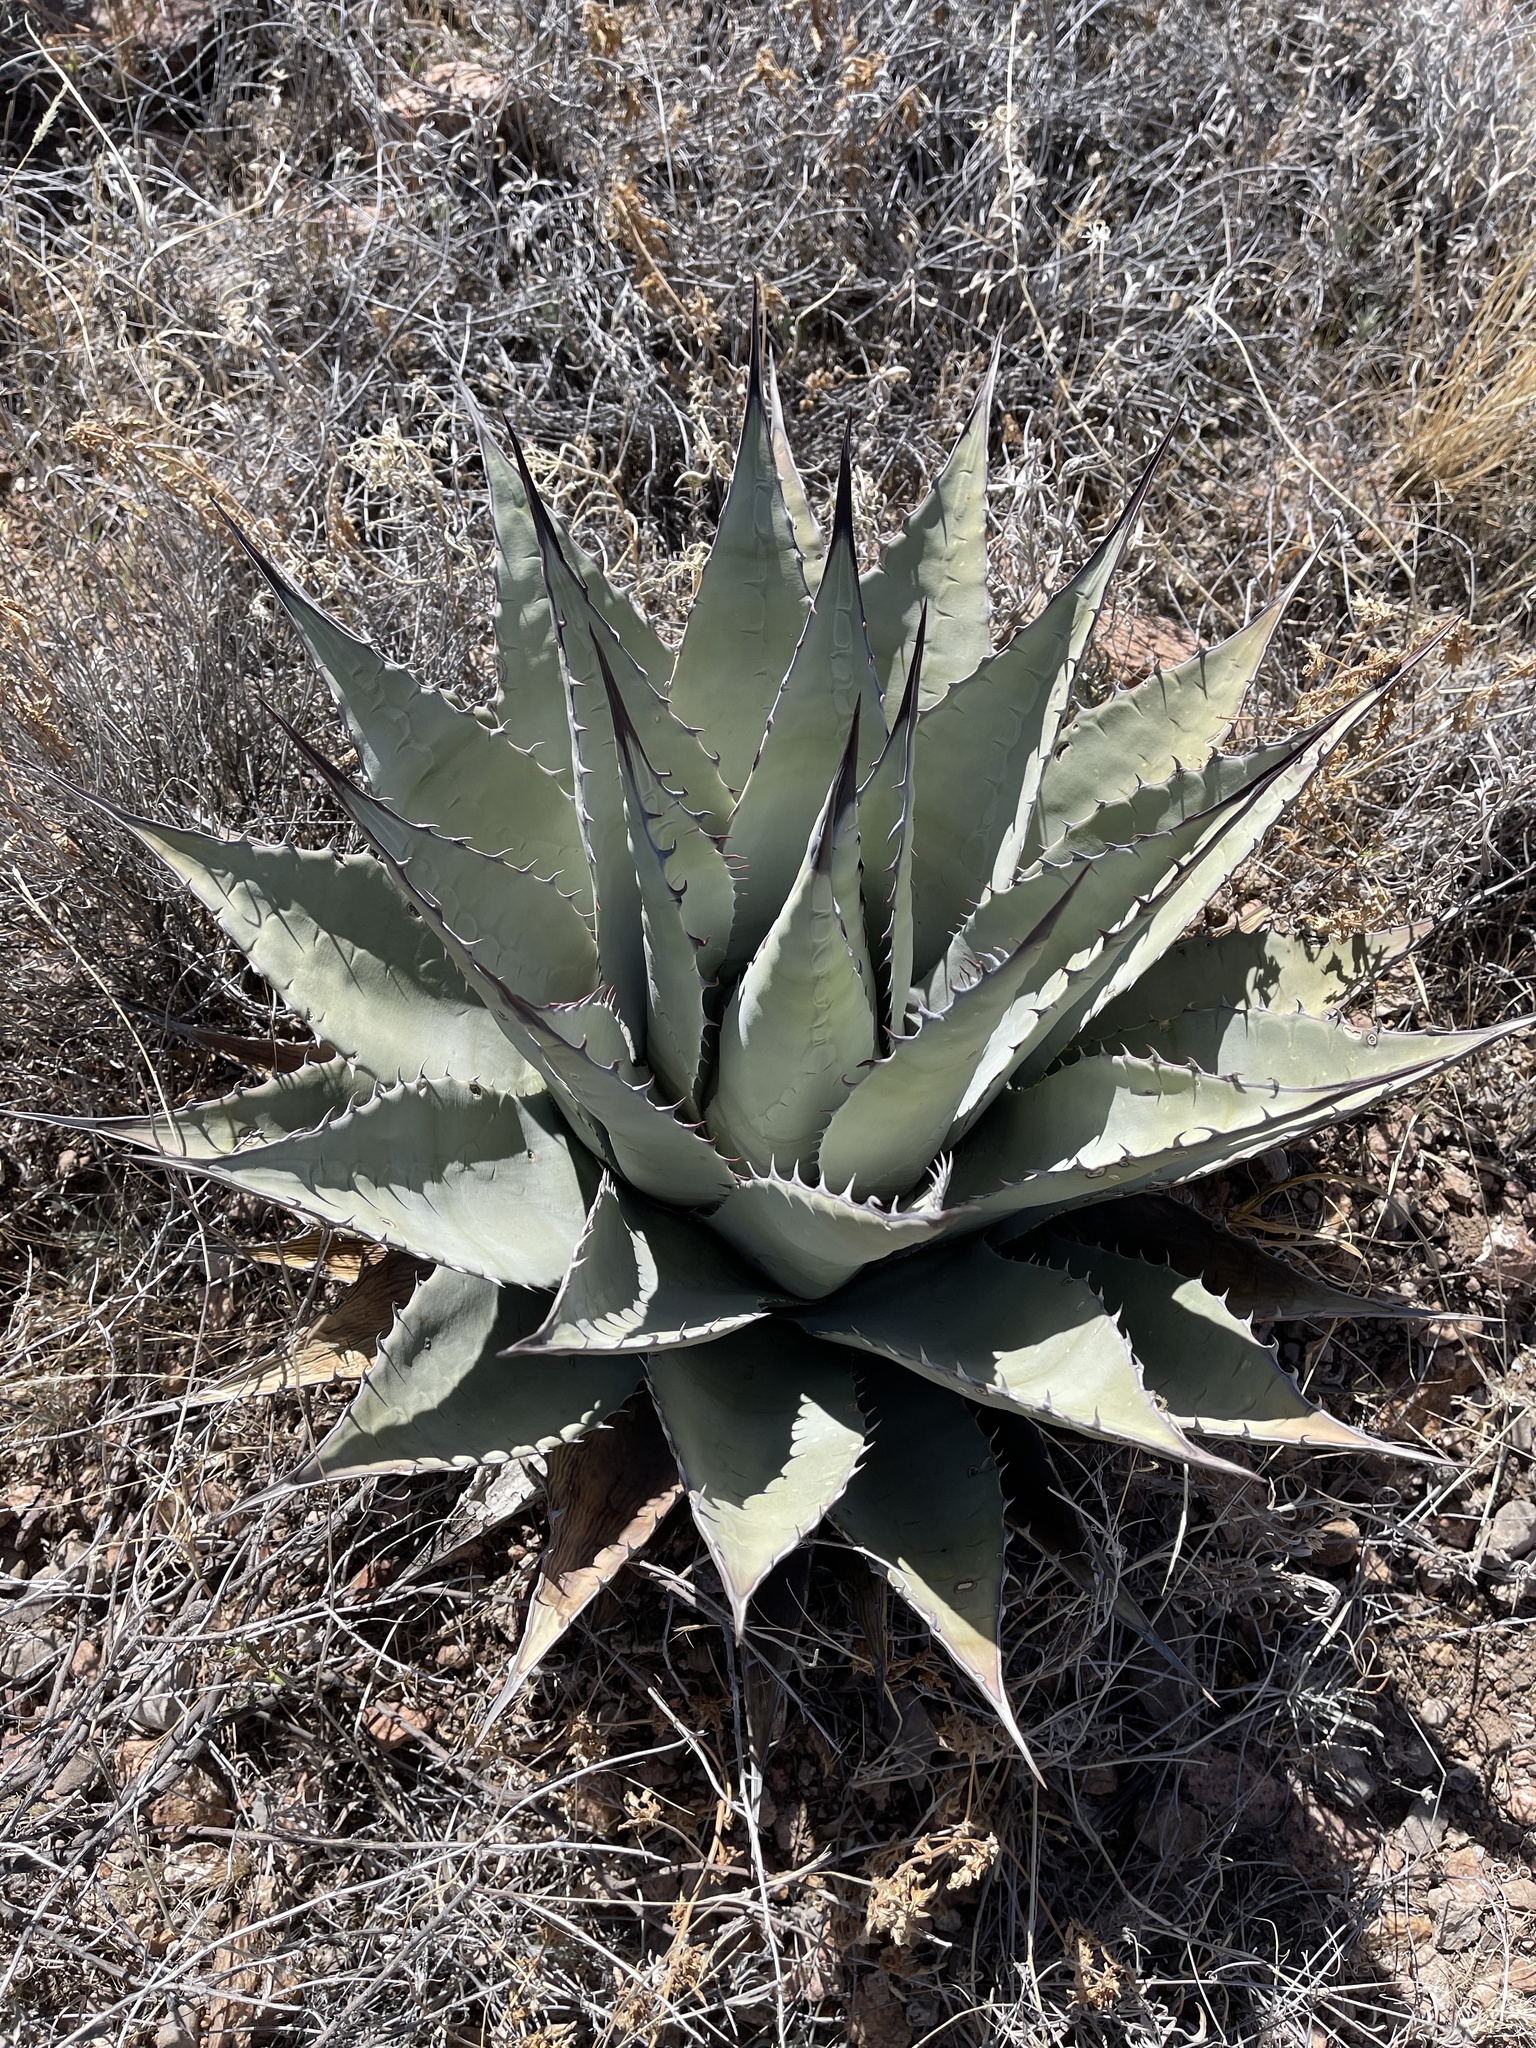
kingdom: Plantae
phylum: Tracheophyta
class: Liliopsida
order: Asparagales
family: Asparagaceae
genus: Agave
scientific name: Agave parryi
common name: Parry's agave
